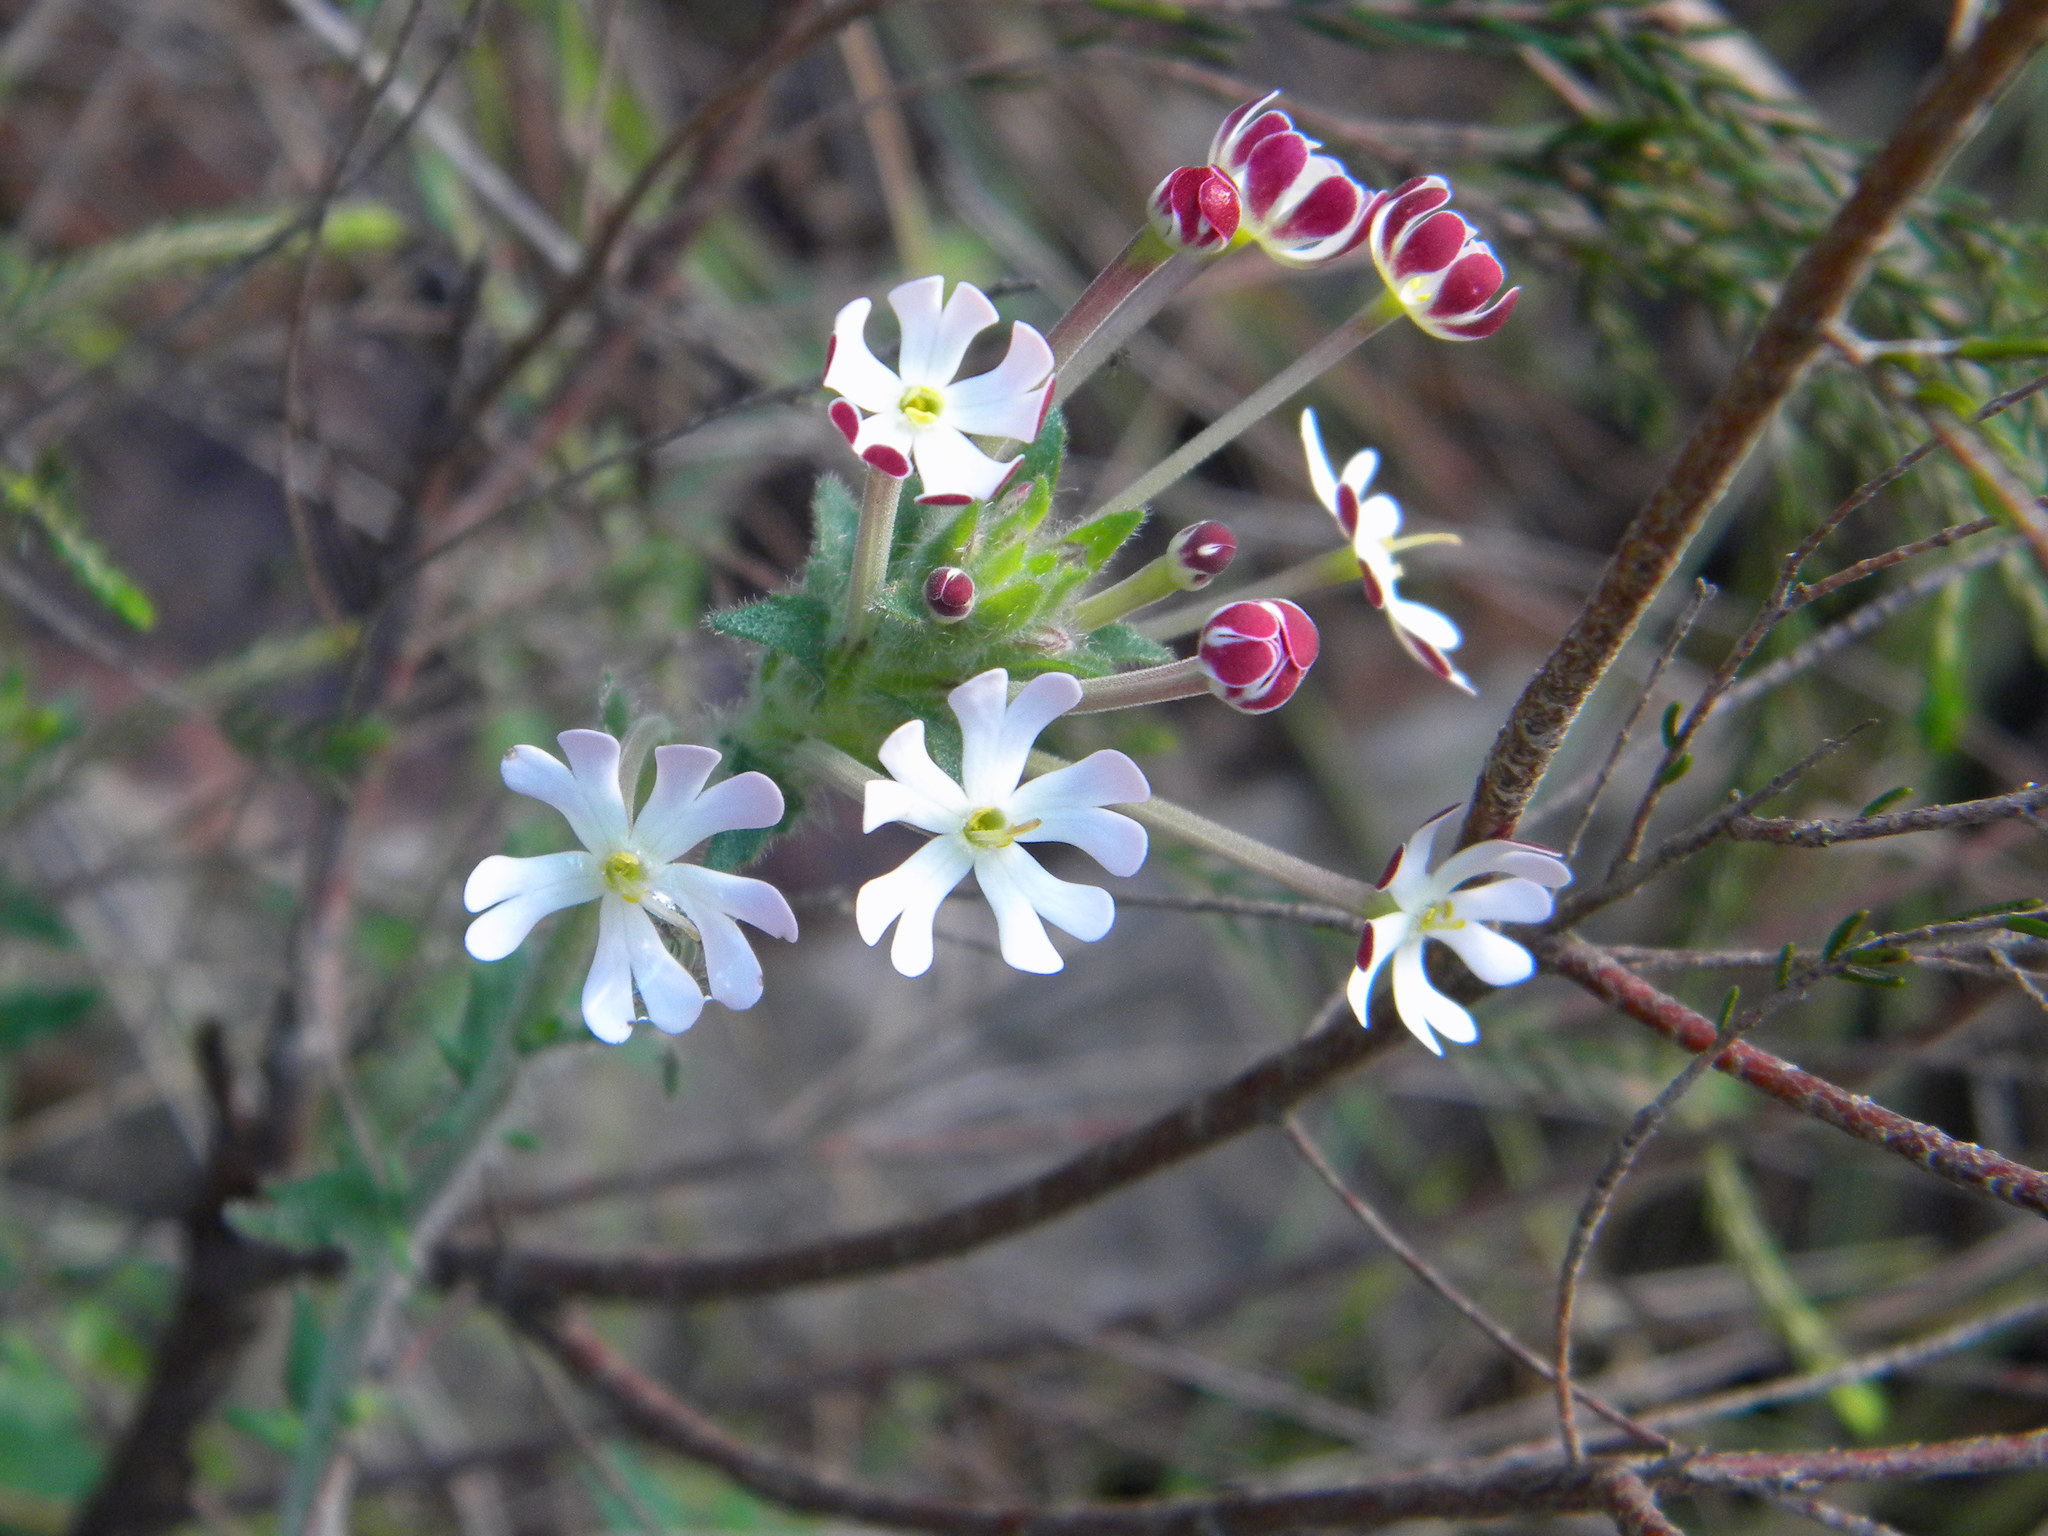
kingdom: Plantae
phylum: Tracheophyta
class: Magnoliopsida
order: Lamiales
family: Scrophulariaceae
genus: Zaluzianskya
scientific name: Zaluzianskya capensis
